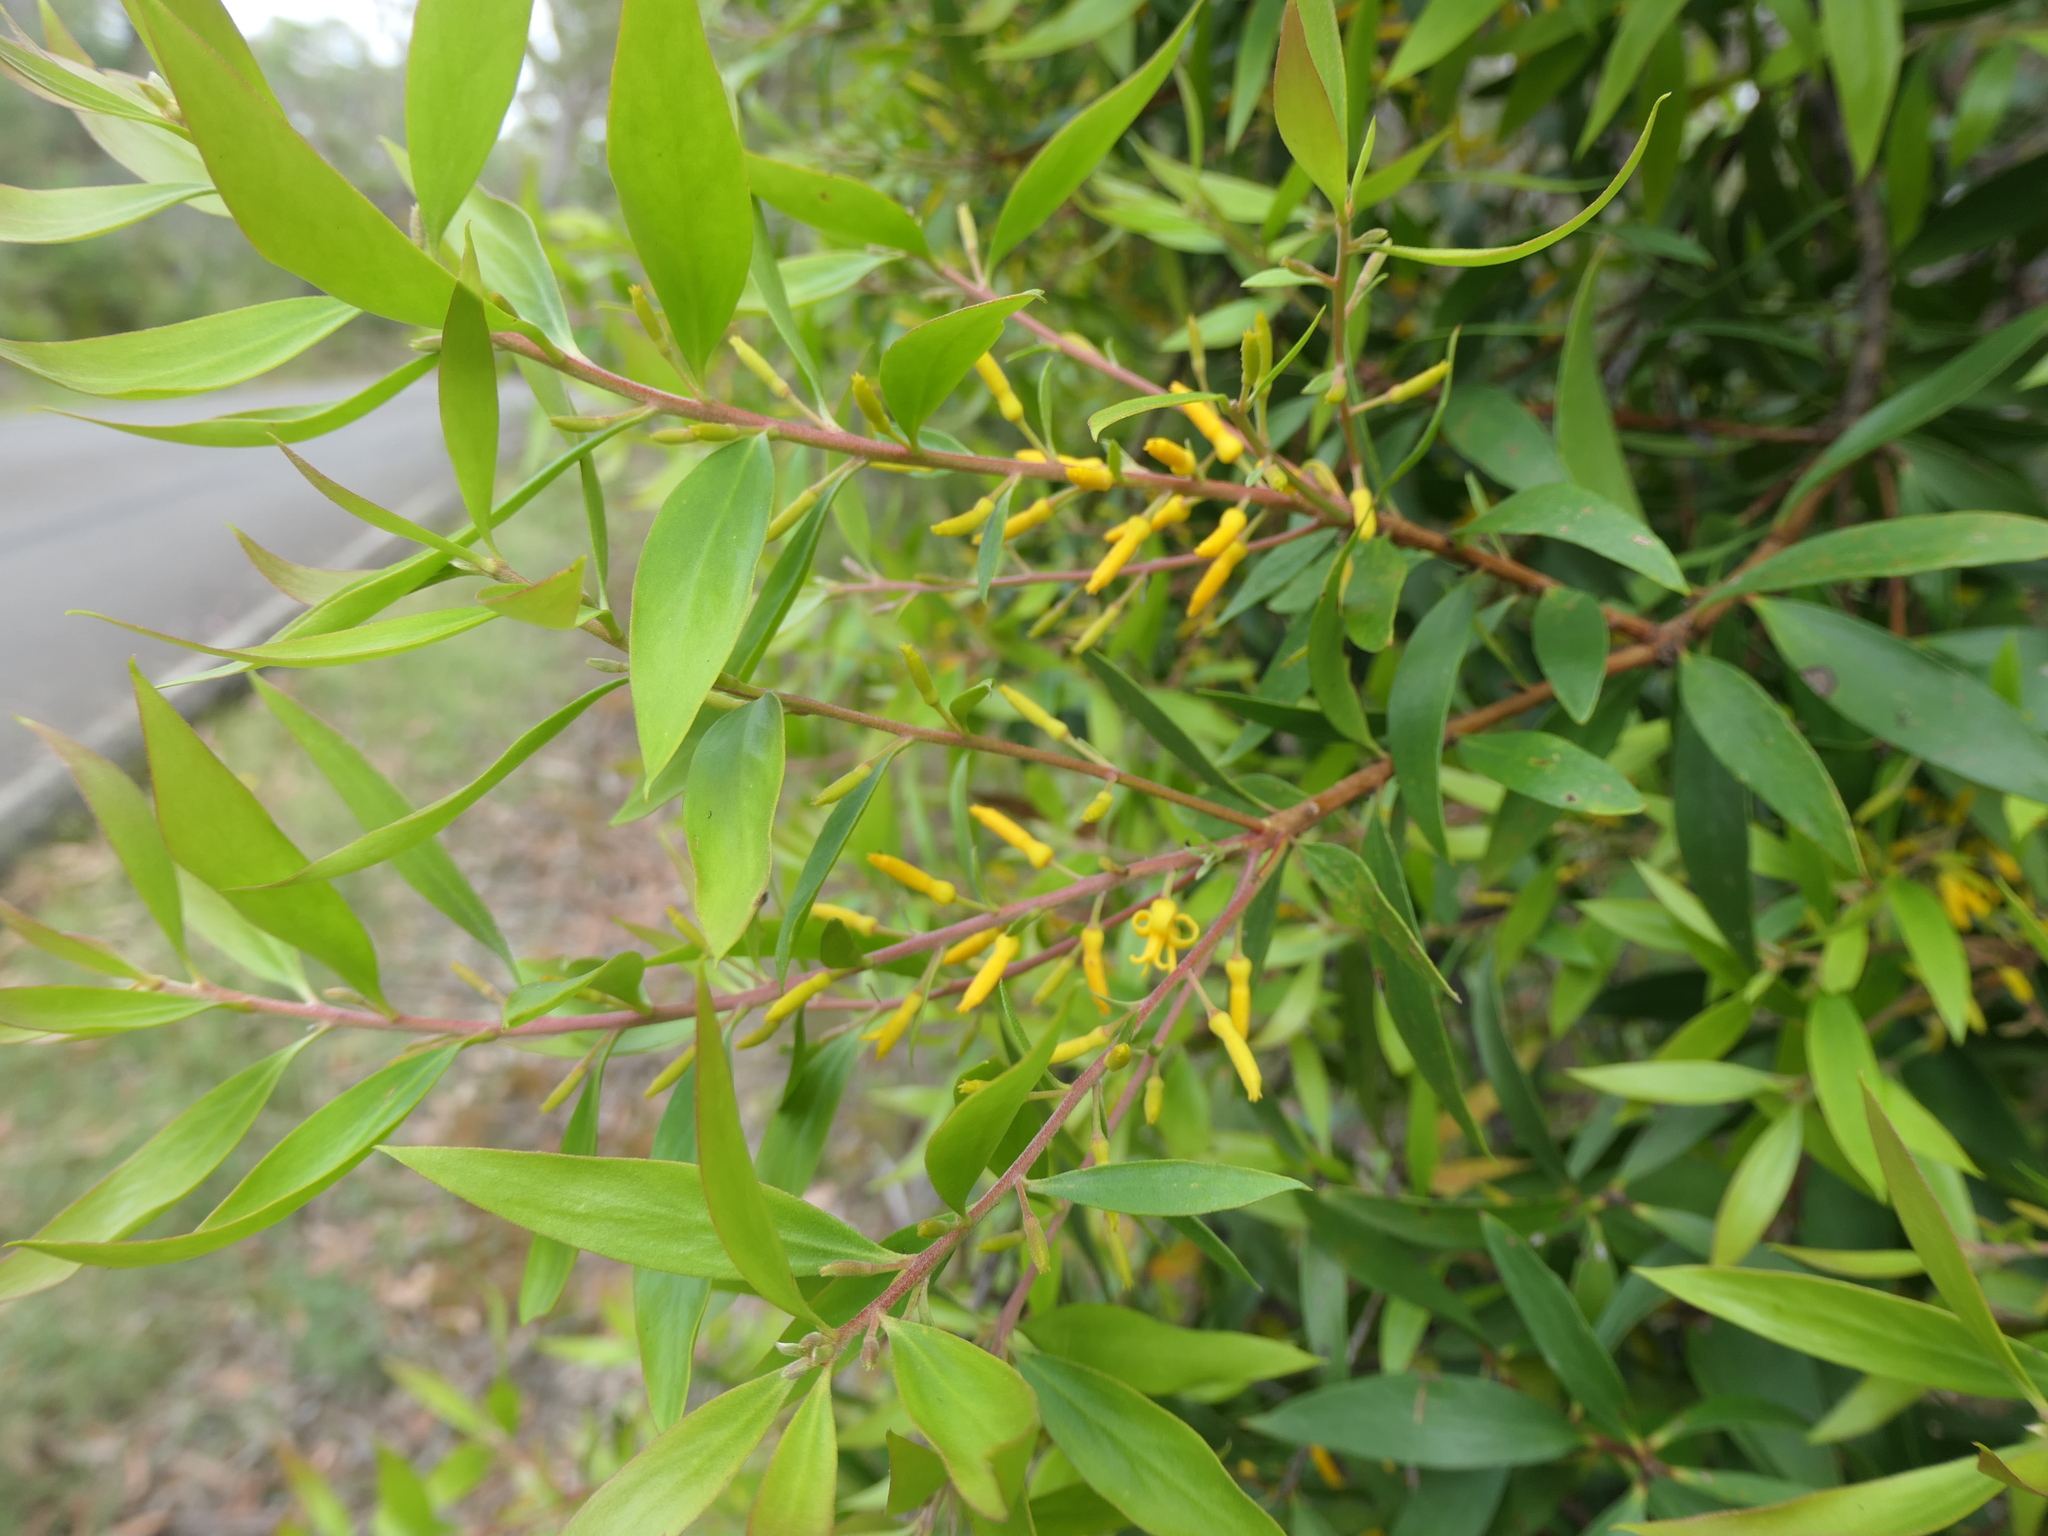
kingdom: Plantae
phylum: Tracheophyta
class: Magnoliopsida
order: Proteales
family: Proteaceae
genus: Persoonia
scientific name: Persoonia lanceolata
